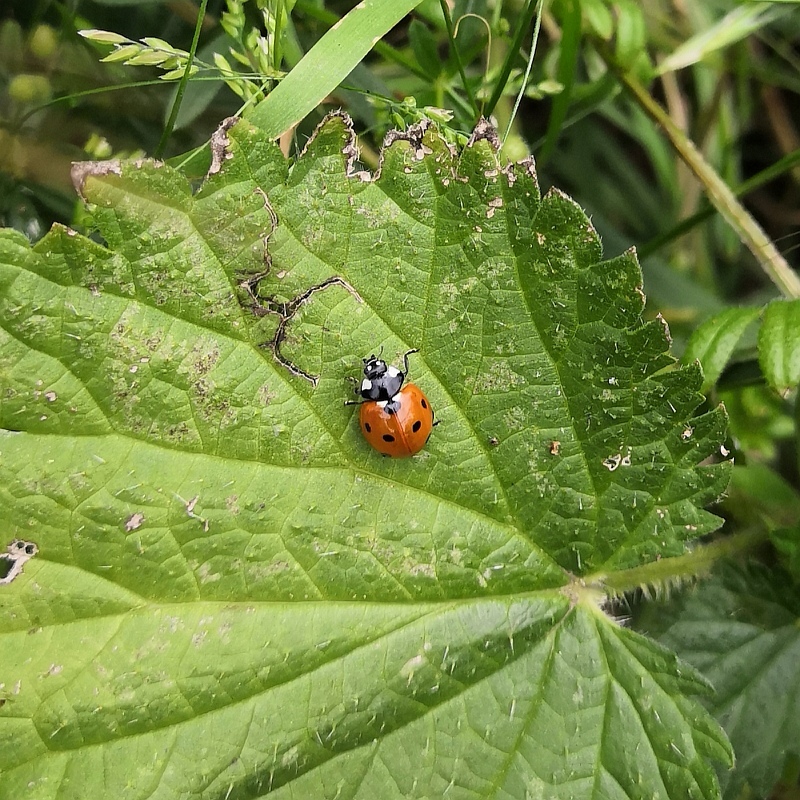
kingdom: Animalia
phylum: Arthropoda
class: Insecta
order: Coleoptera
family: Coccinellidae
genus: Coccinella
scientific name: Coccinella septempunctata
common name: Sevenspotted lady beetle
